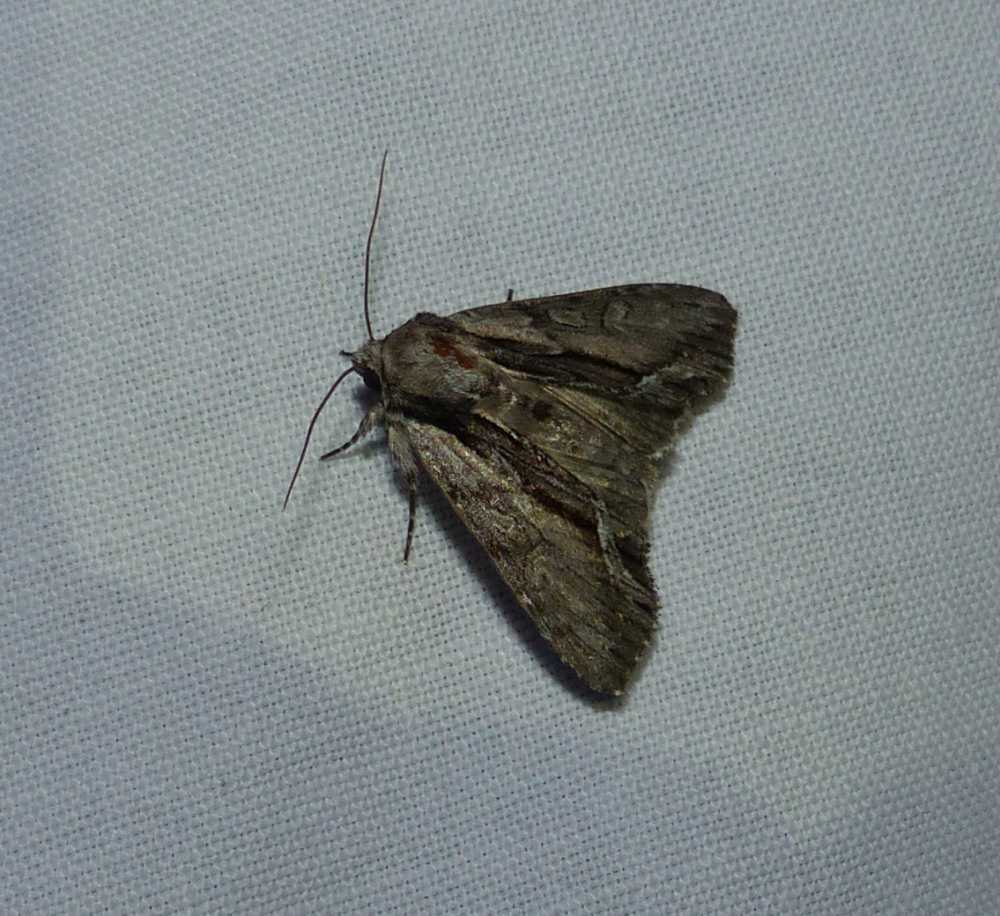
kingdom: Animalia
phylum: Arthropoda
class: Insecta
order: Lepidoptera
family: Noctuidae
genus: Hyppa
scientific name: Hyppa xylinoides
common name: Common hyppa moth
